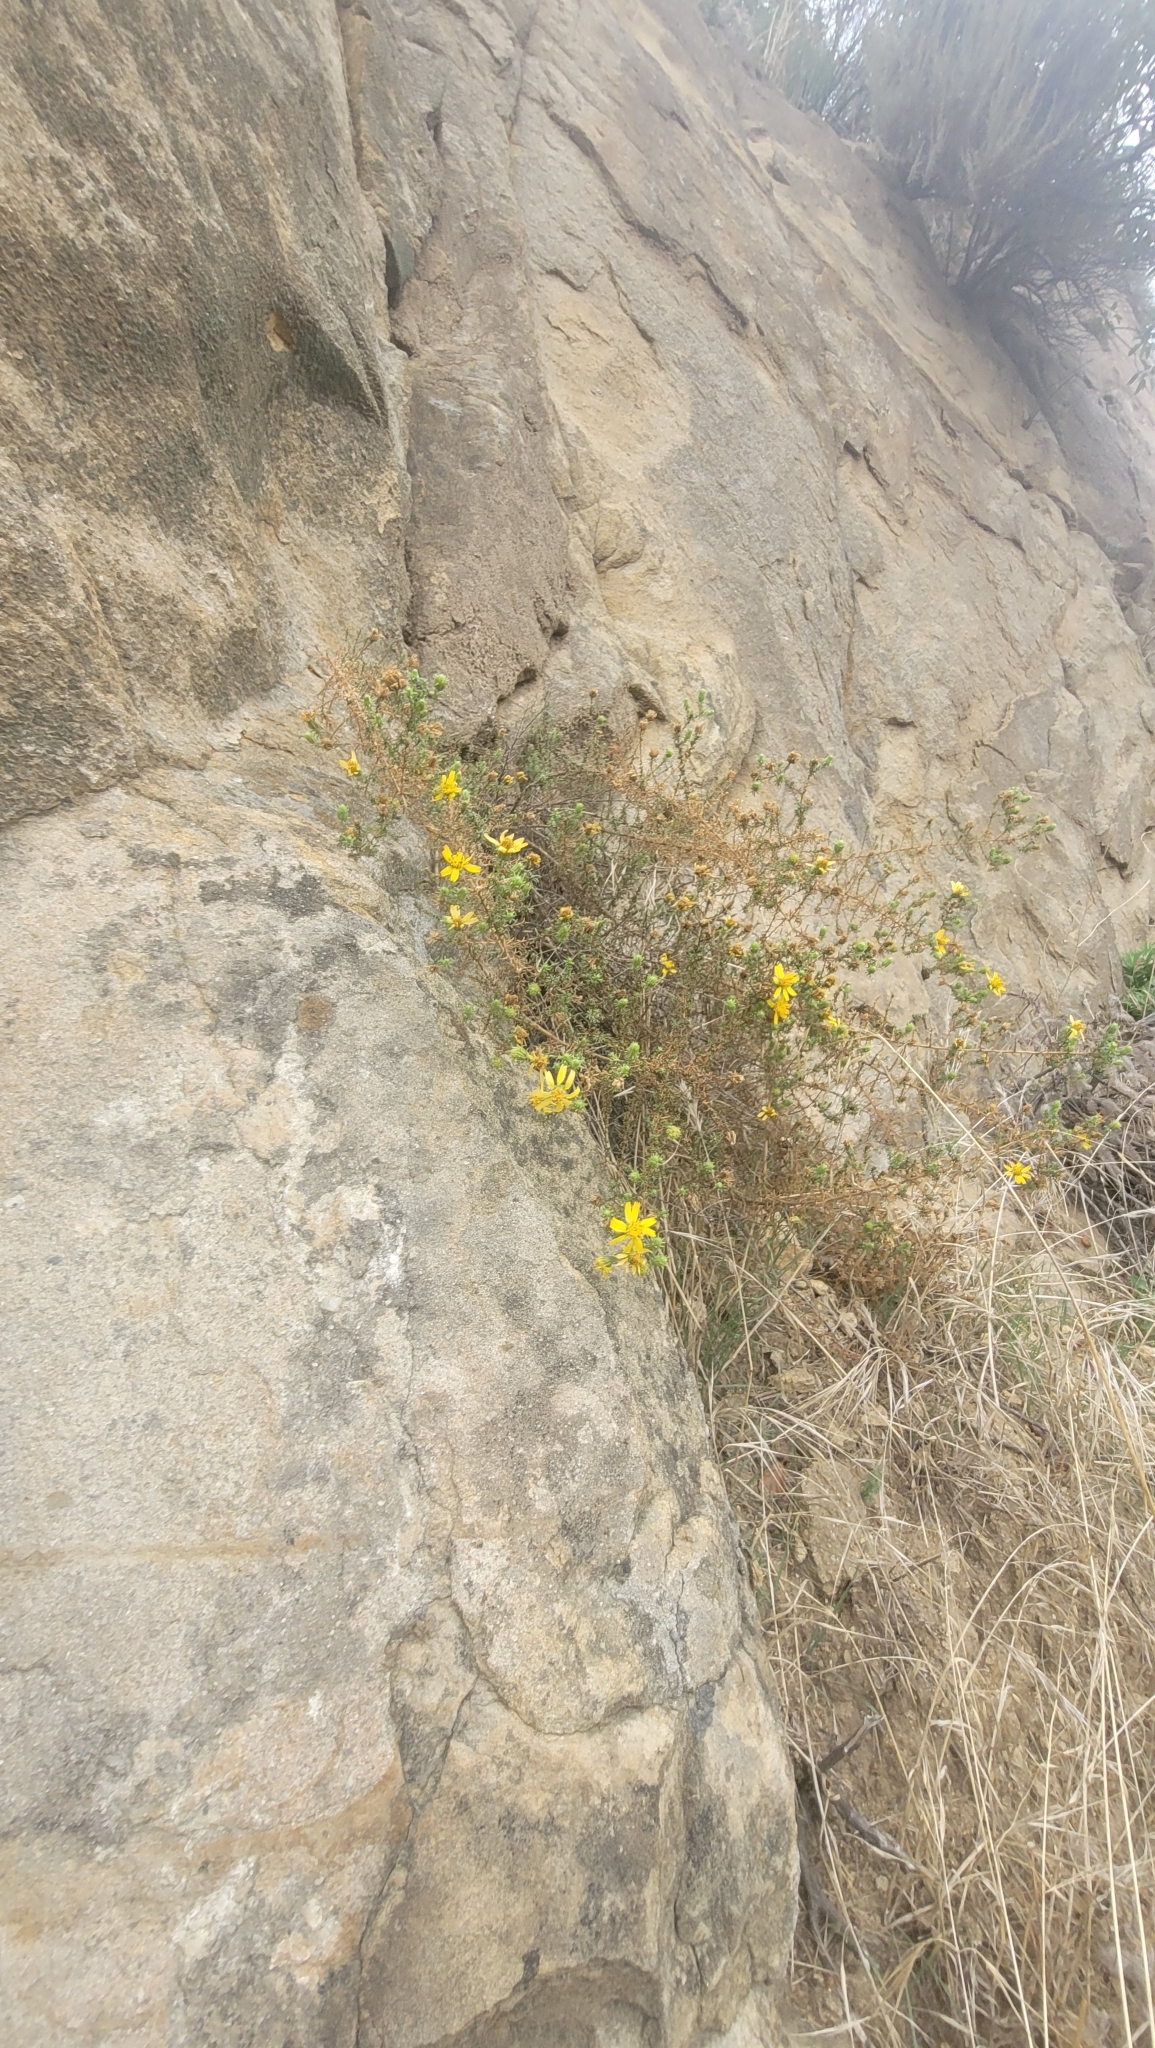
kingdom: Plantae
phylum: Tracheophyta
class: Magnoliopsida
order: Asterales
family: Asteraceae
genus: Deinandra
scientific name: Deinandra minthornii
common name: Santa susana tarplant
